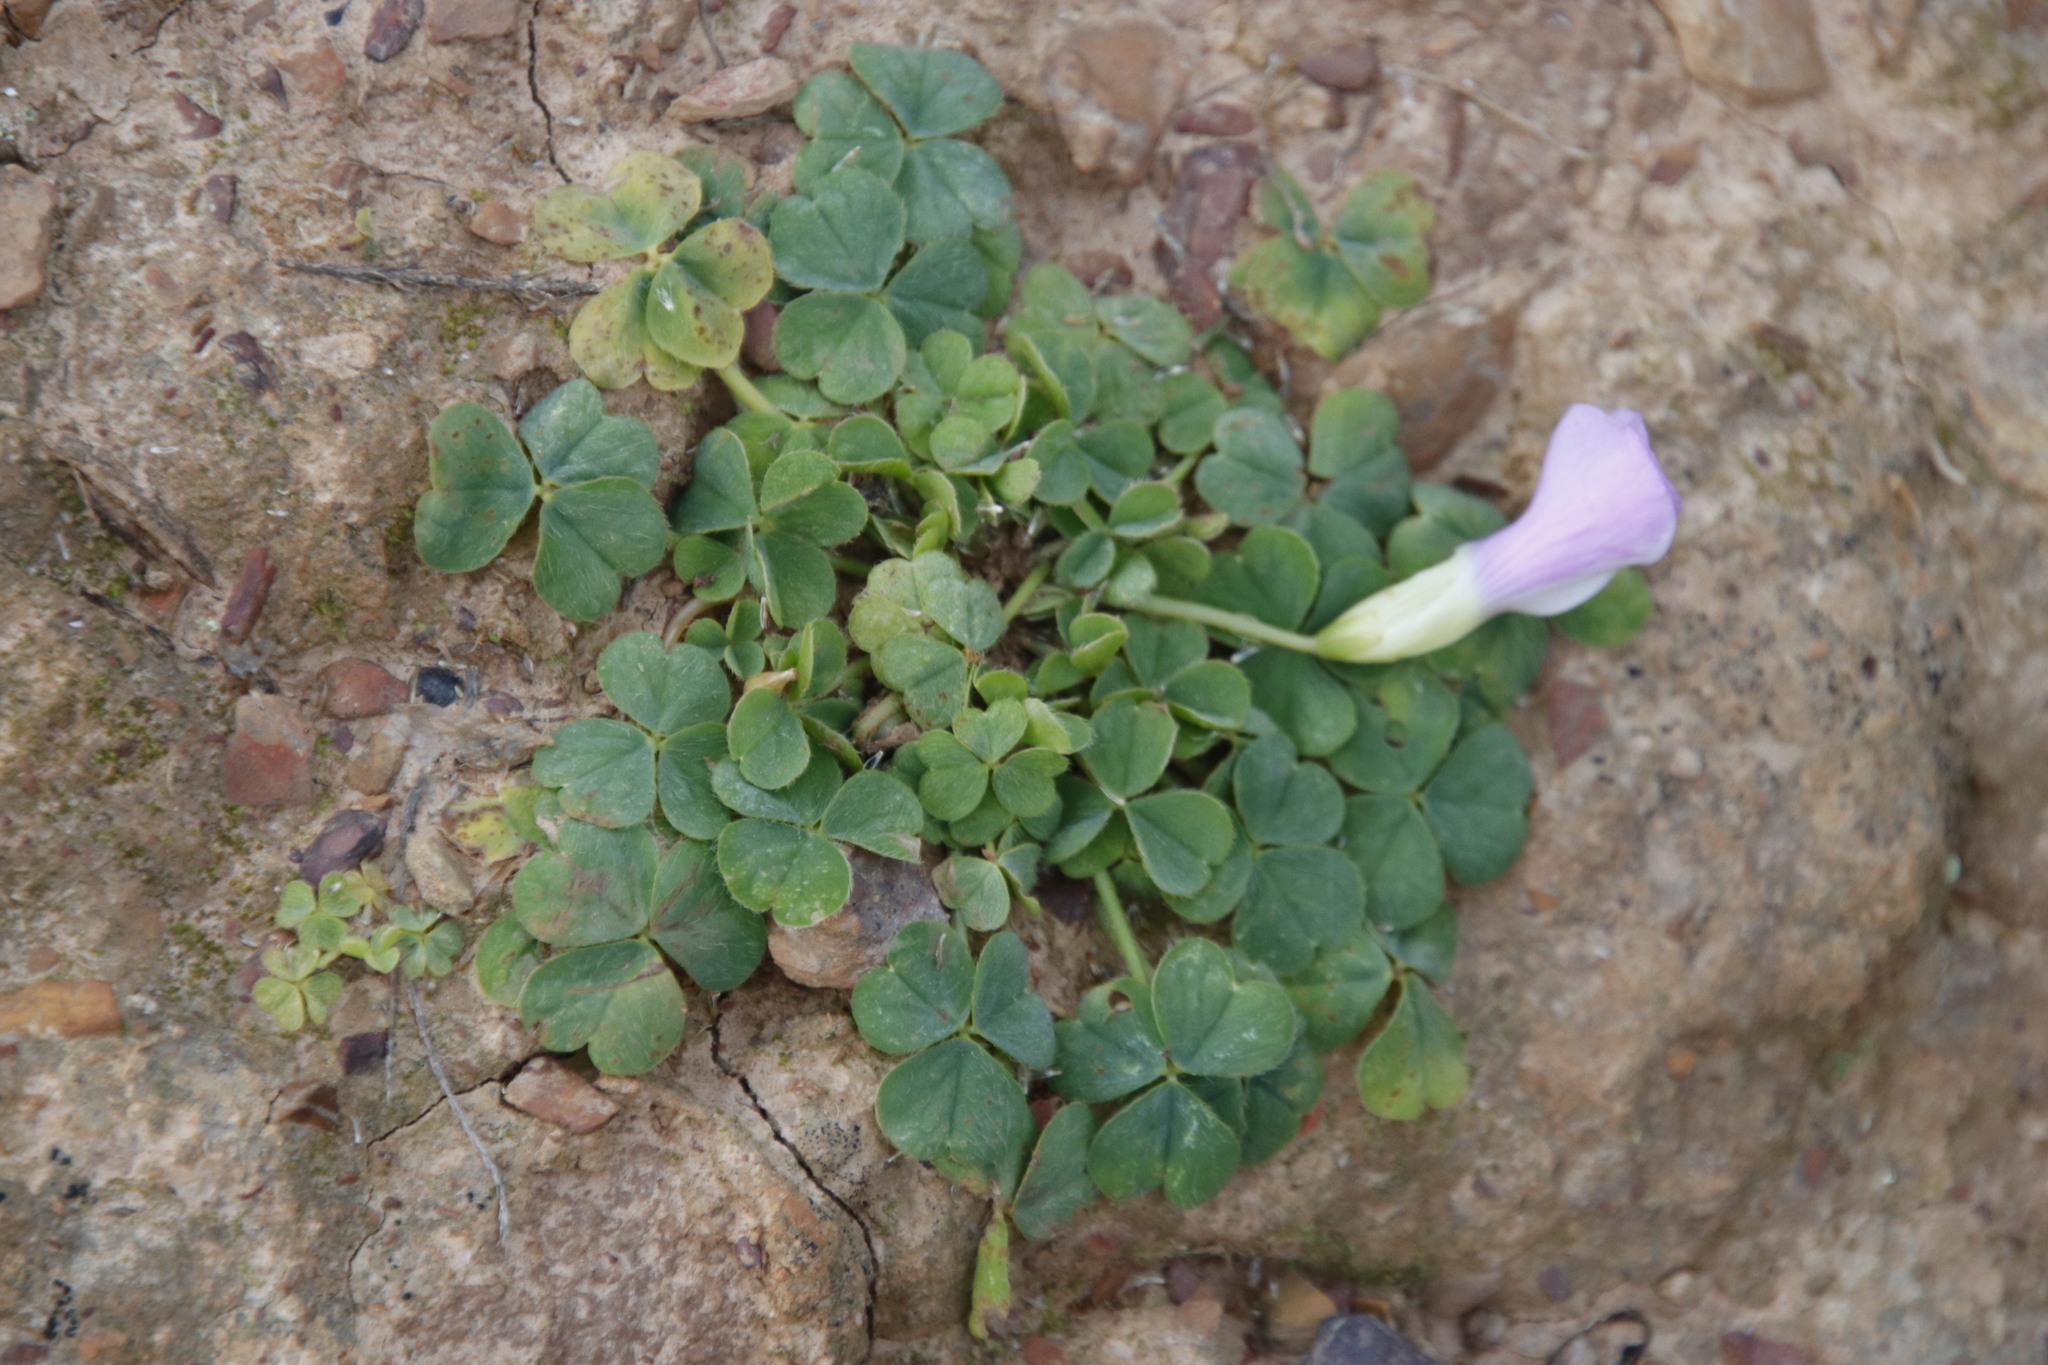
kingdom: Plantae
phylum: Tracheophyta
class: Magnoliopsida
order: Oxalidales
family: Oxalidaceae
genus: Oxalis
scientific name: Oxalis zeekoevleyensis
